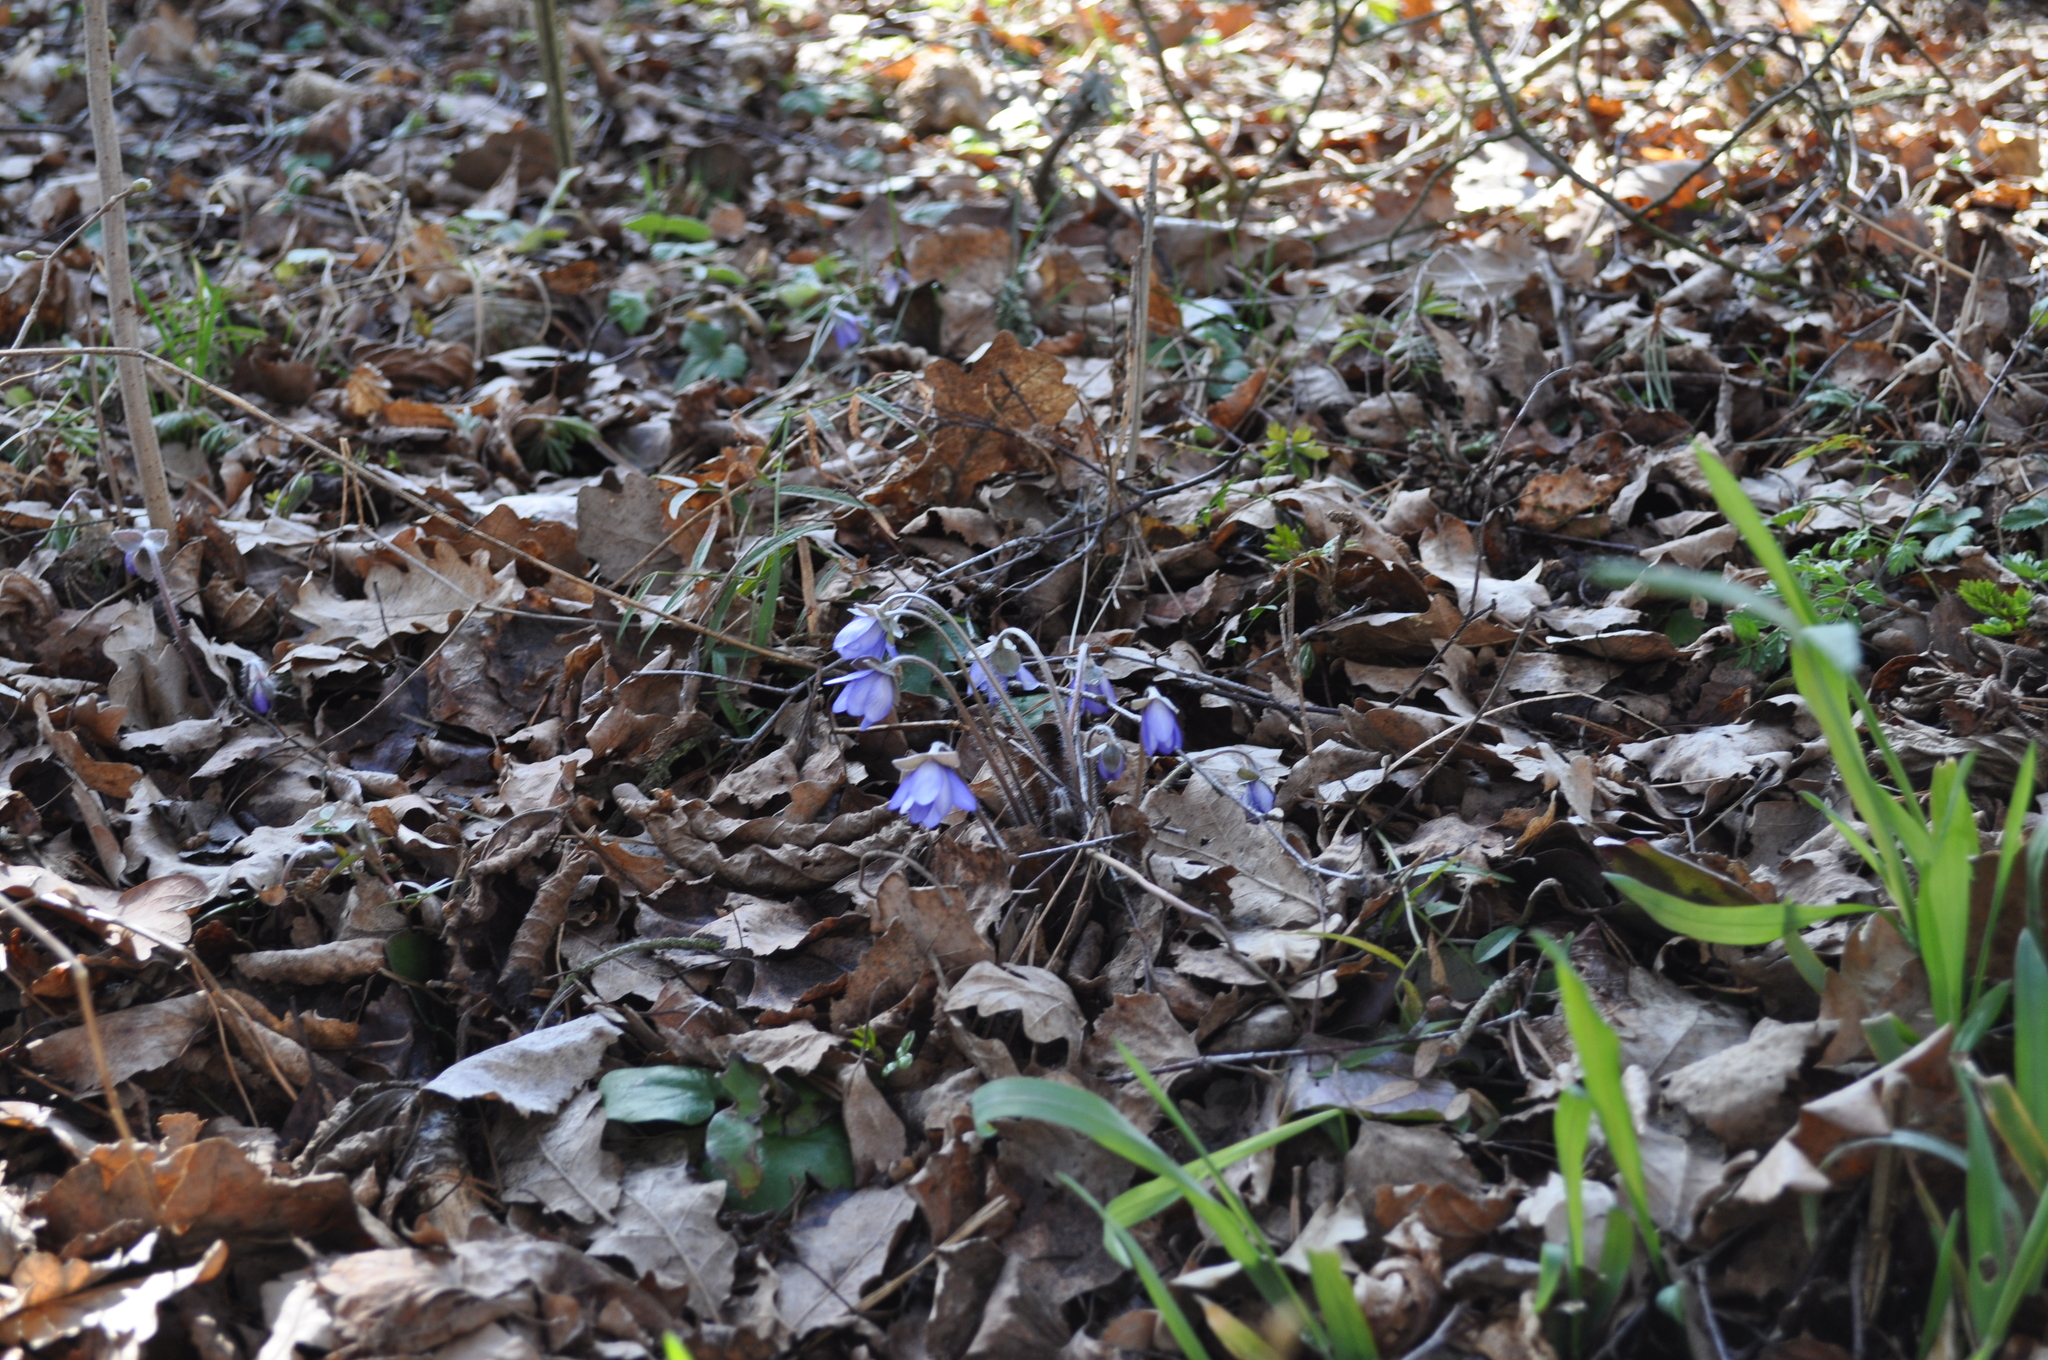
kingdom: Plantae
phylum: Tracheophyta
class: Magnoliopsida
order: Ranunculales
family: Ranunculaceae
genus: Hepatica
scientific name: Hepatica nobilis
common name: Liverleaf
